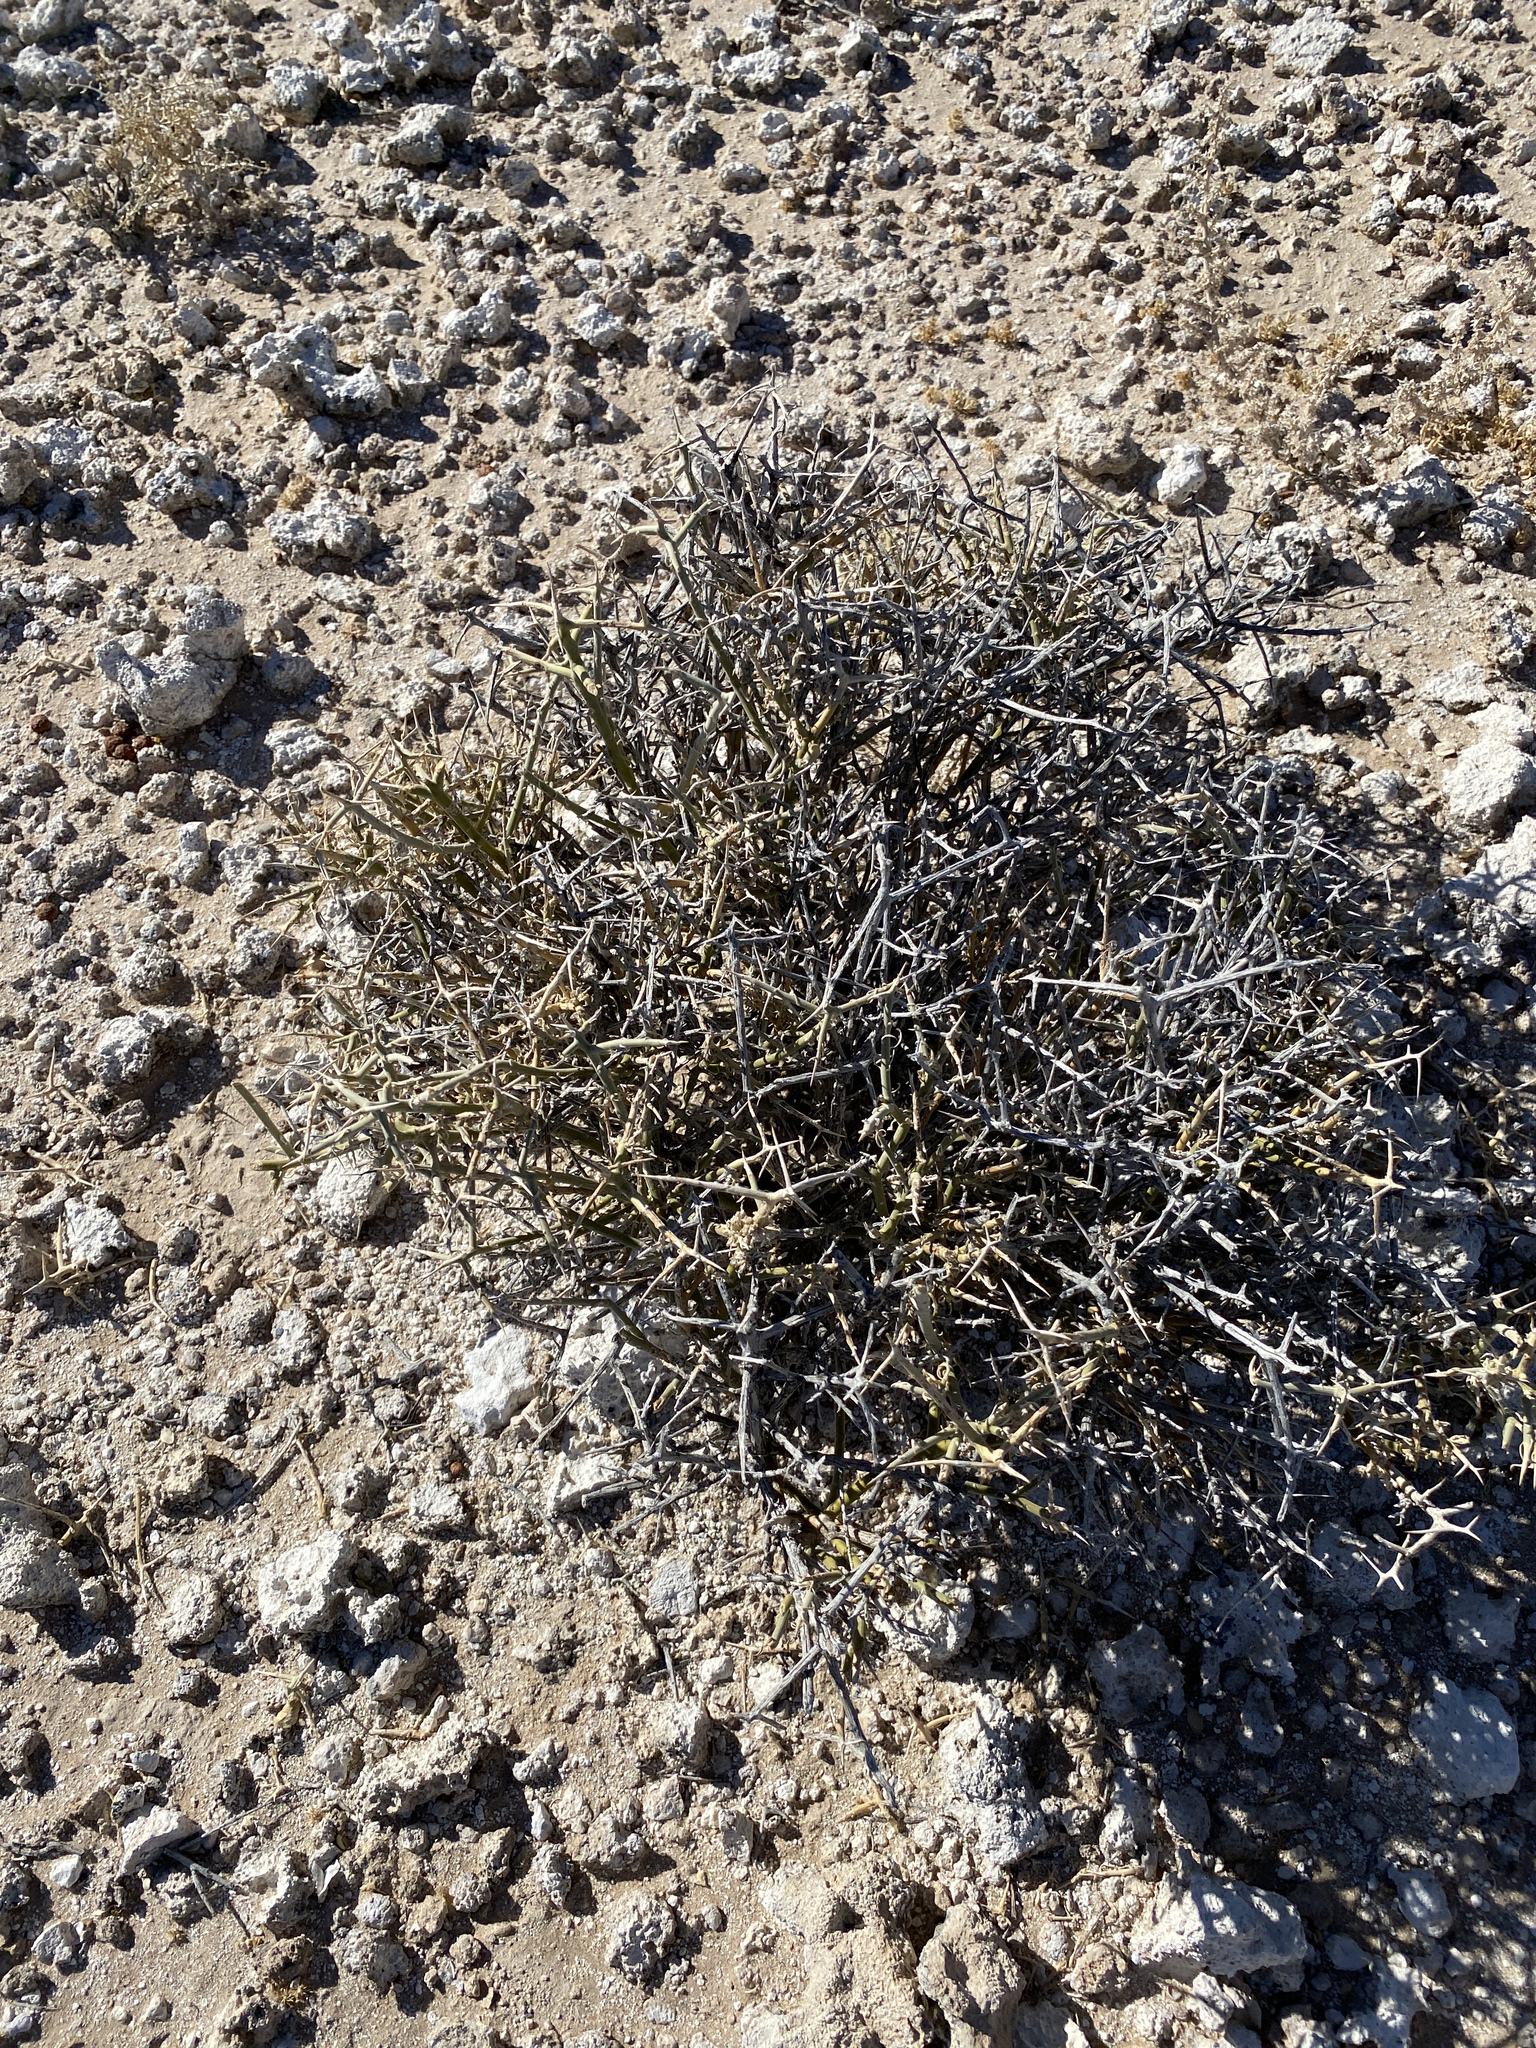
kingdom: Plantae
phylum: Tracheophyta
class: Magnoliopsida
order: Lamiales
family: Oleaceae
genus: Menodora
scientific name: Menodora spinescens
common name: Spiny menodora
